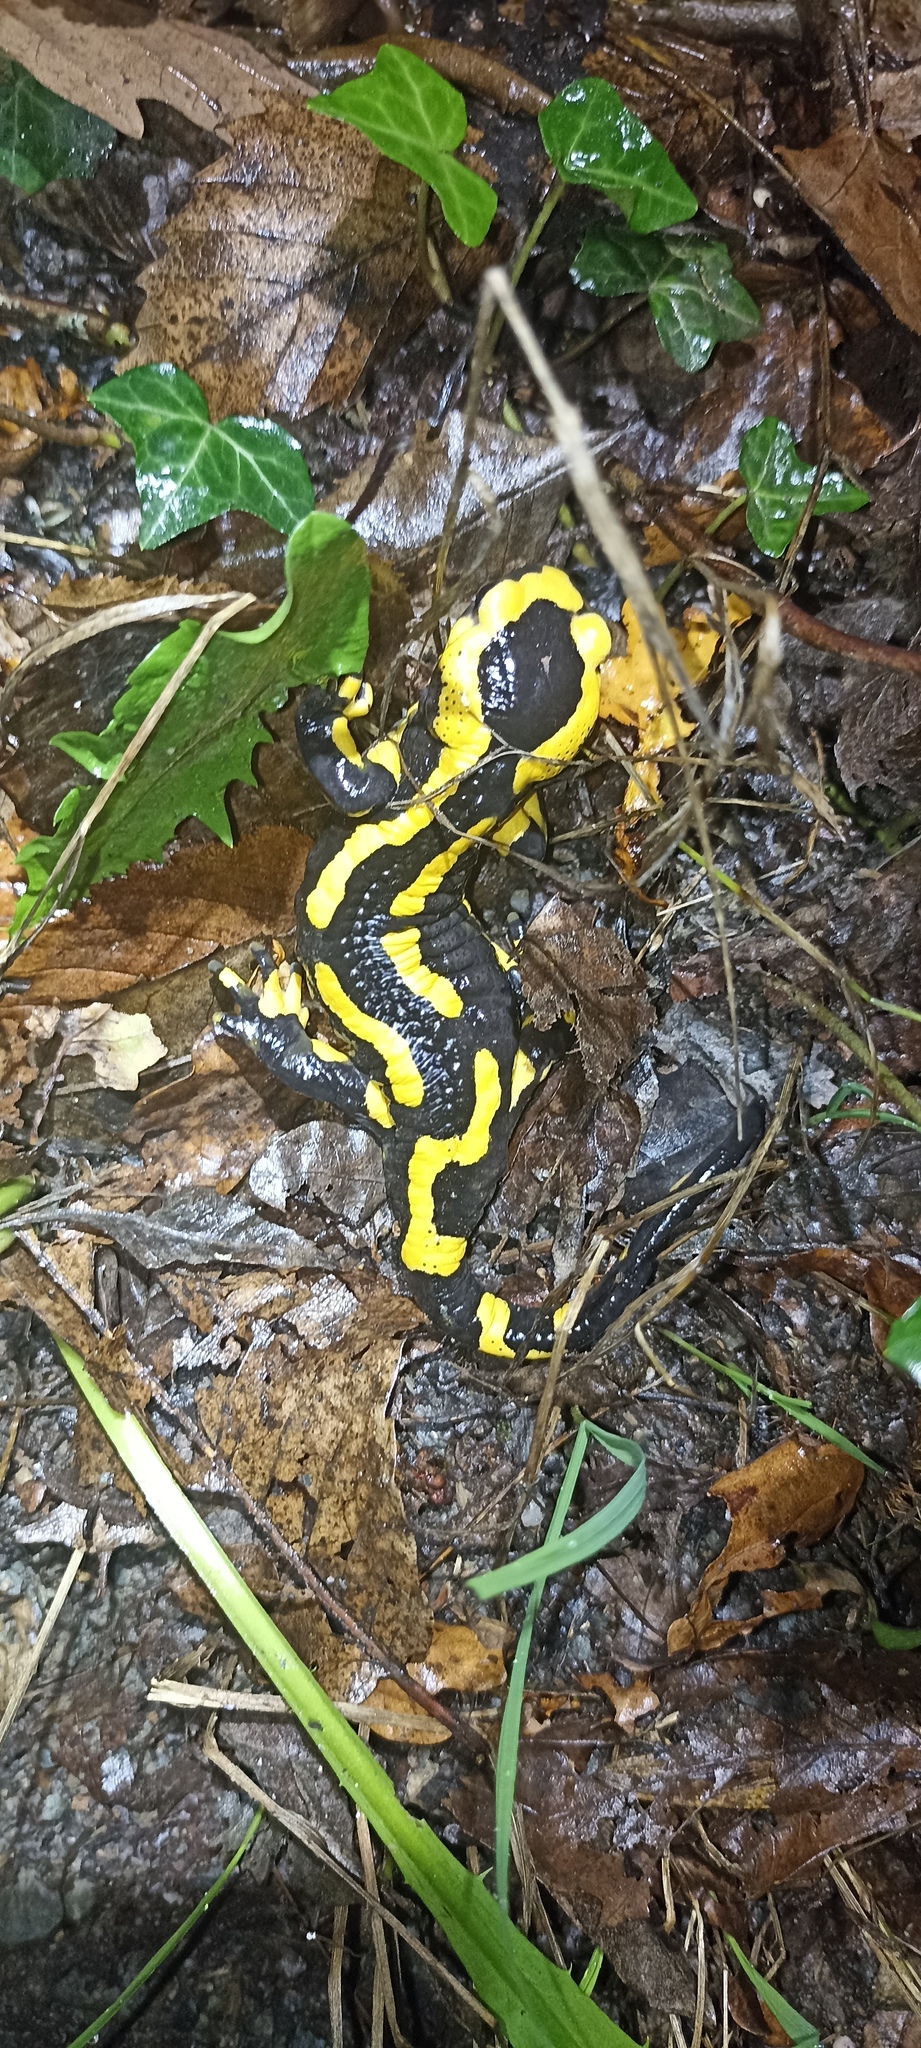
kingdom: Animalia
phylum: Chordata
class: Amphibia
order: Caudata
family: Salamandridae
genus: Salamandra
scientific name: Salamandra salamandra
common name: Fire salamander
